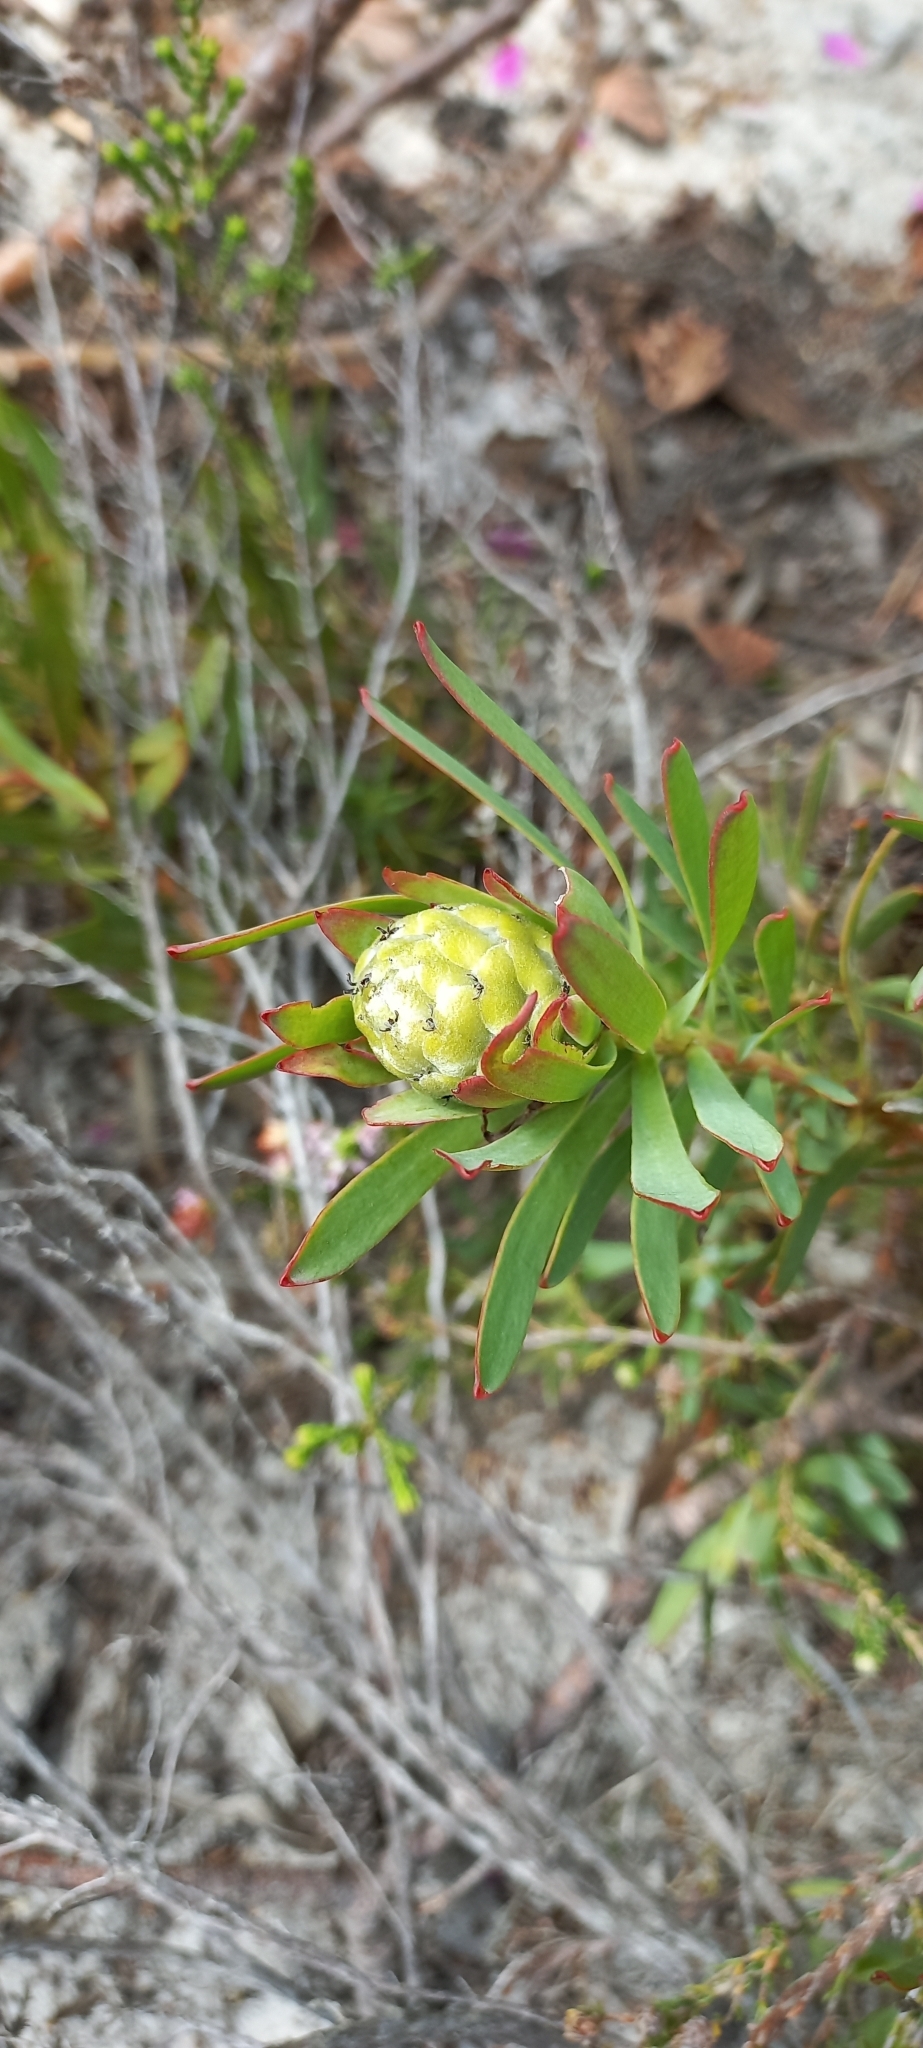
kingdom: Plantae
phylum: Tracheophyta
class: Magnoliopsida
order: Proteales
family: Proteaceae
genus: Leucadendron
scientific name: Leucadendron salignum
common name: Common sunshine conebush
